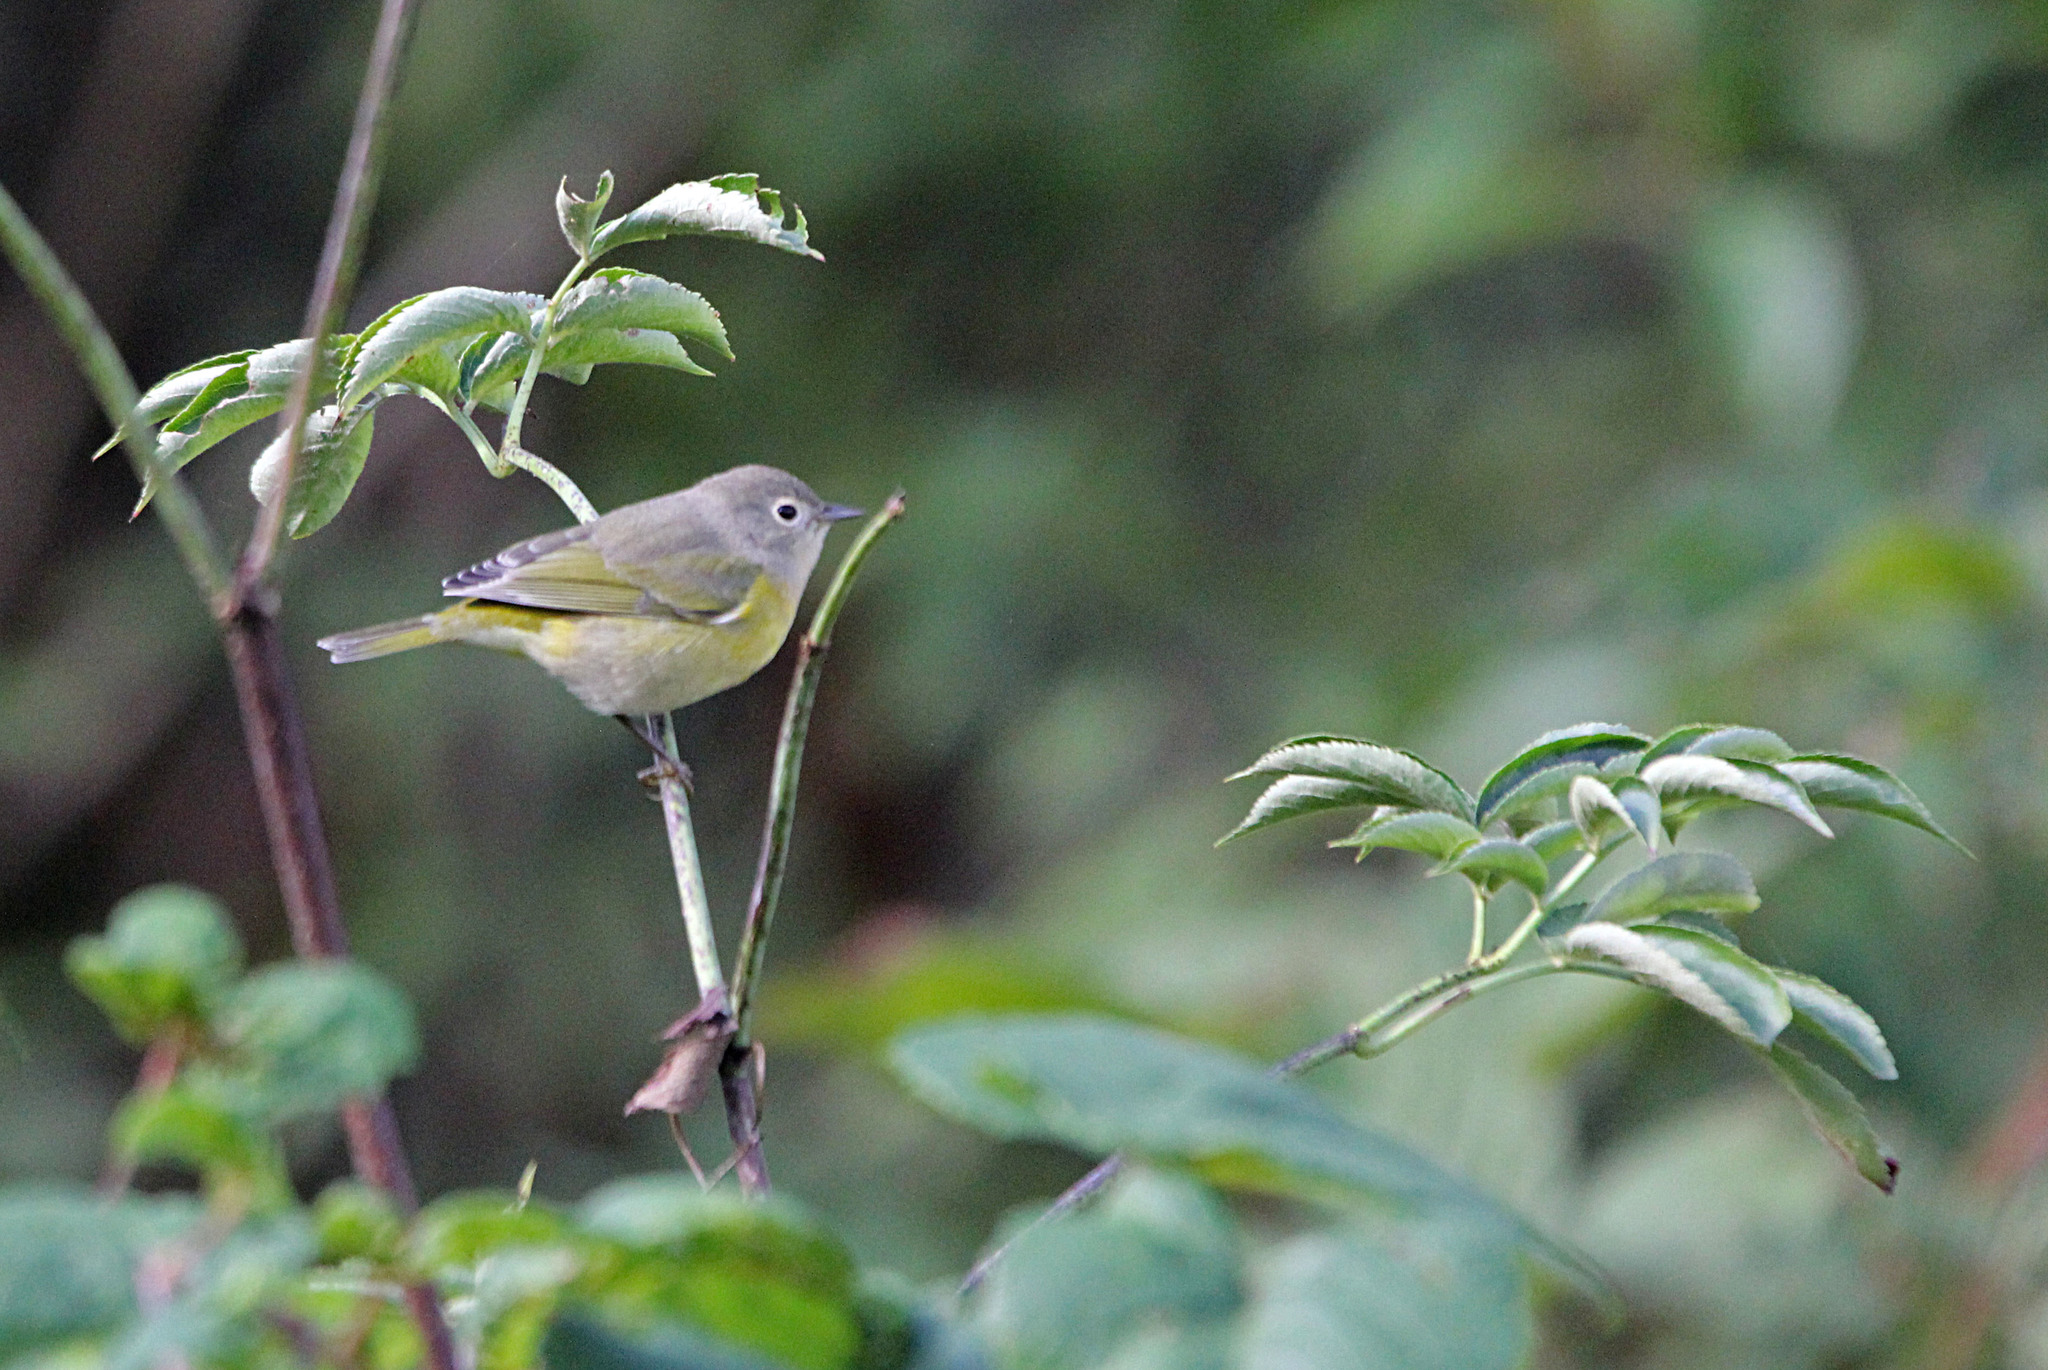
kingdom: Animalia
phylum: Chordata
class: Aves
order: Passeriformes
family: Parulidae
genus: Leiothlypis
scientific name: Leiothlypis ruficapilla
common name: Nashville warbler
